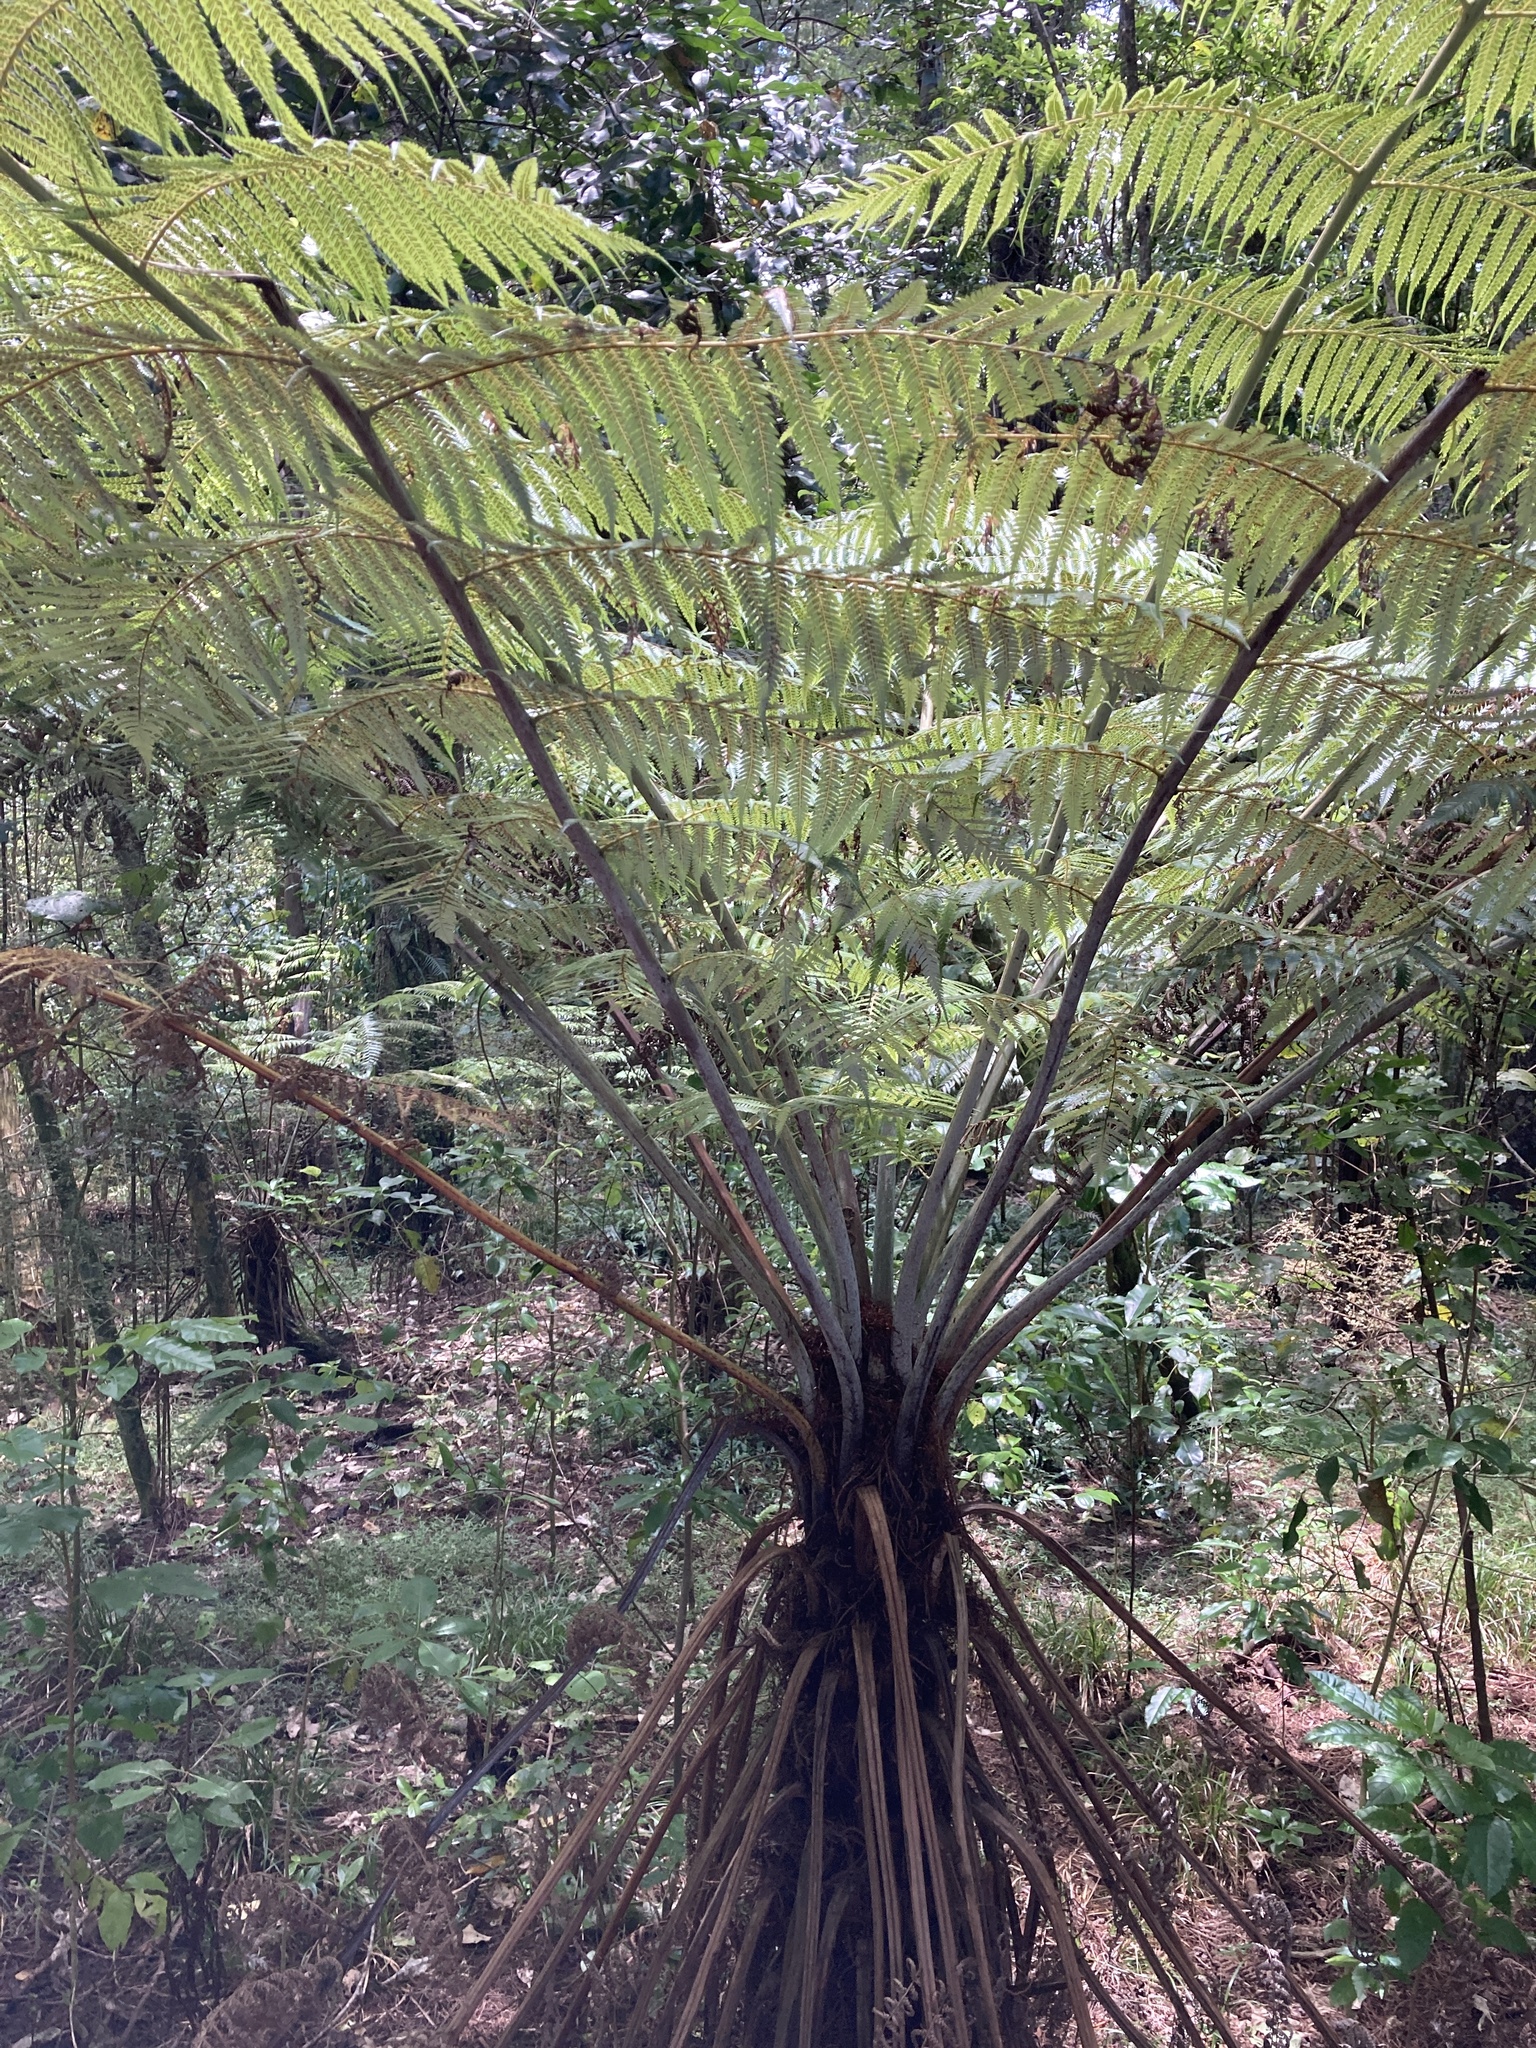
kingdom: Plantae
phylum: Tracheophyta
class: Polypodiopsida
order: Cyatheales
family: Cyatheaceae
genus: Alsophila
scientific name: Alsophila dealbata
